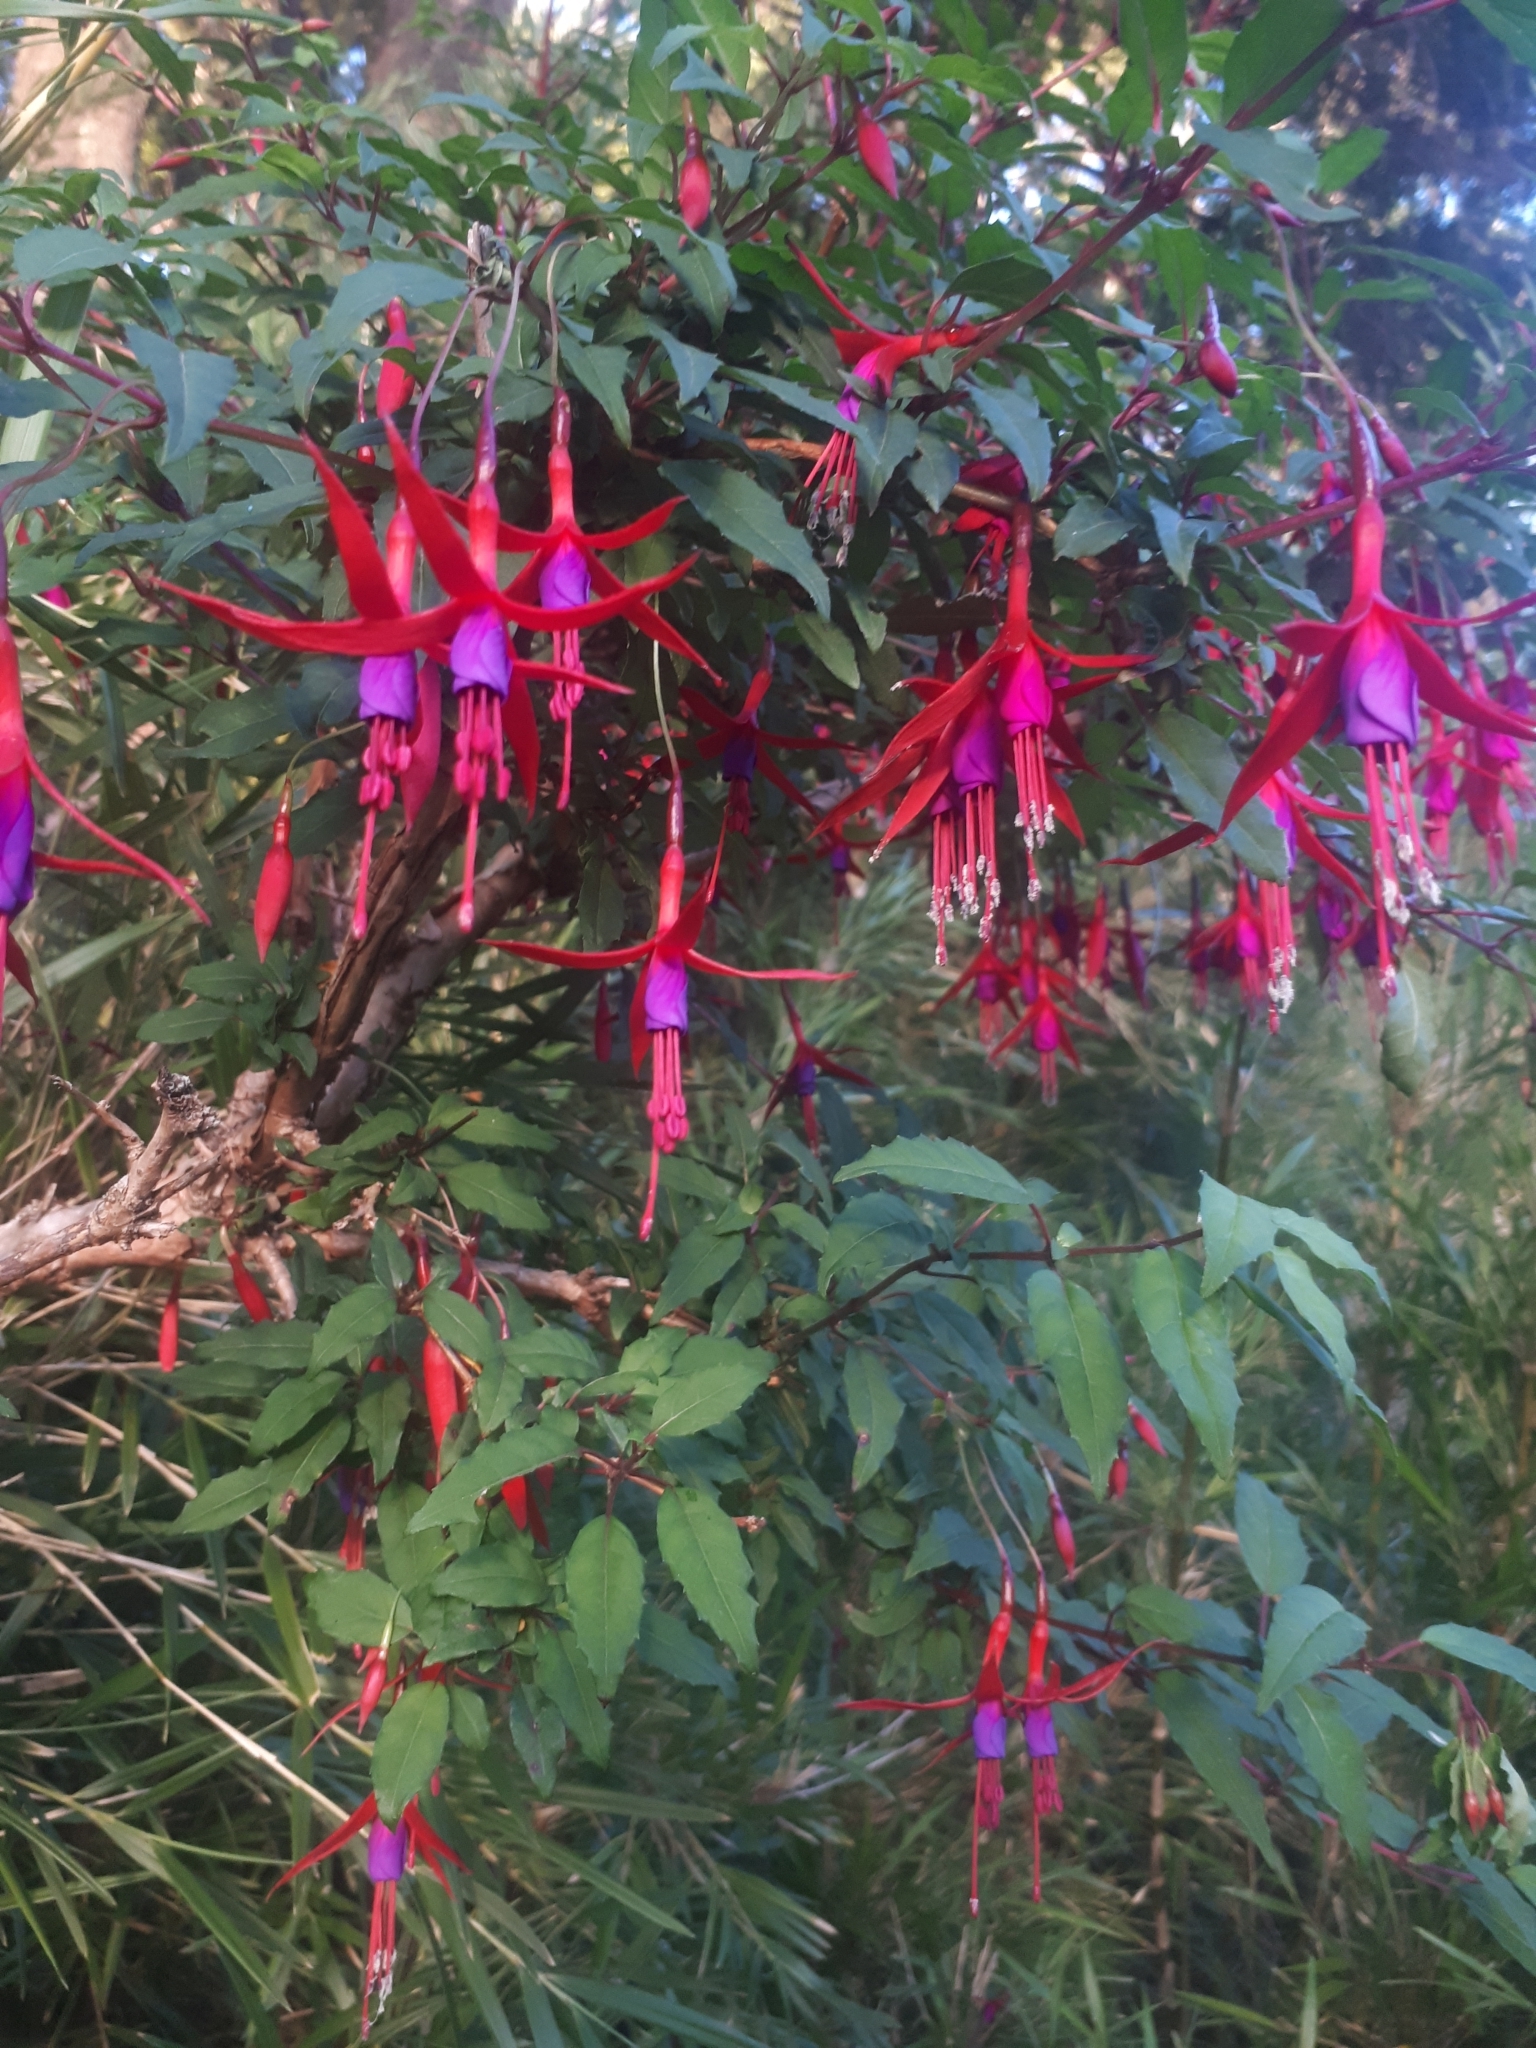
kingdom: Plantae
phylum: Tracheophyta
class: Magnoliopsida
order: Myrtales
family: Onagraceae
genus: Fuchsia
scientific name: Fuchsia magellanica
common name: Hardy fuchsia
